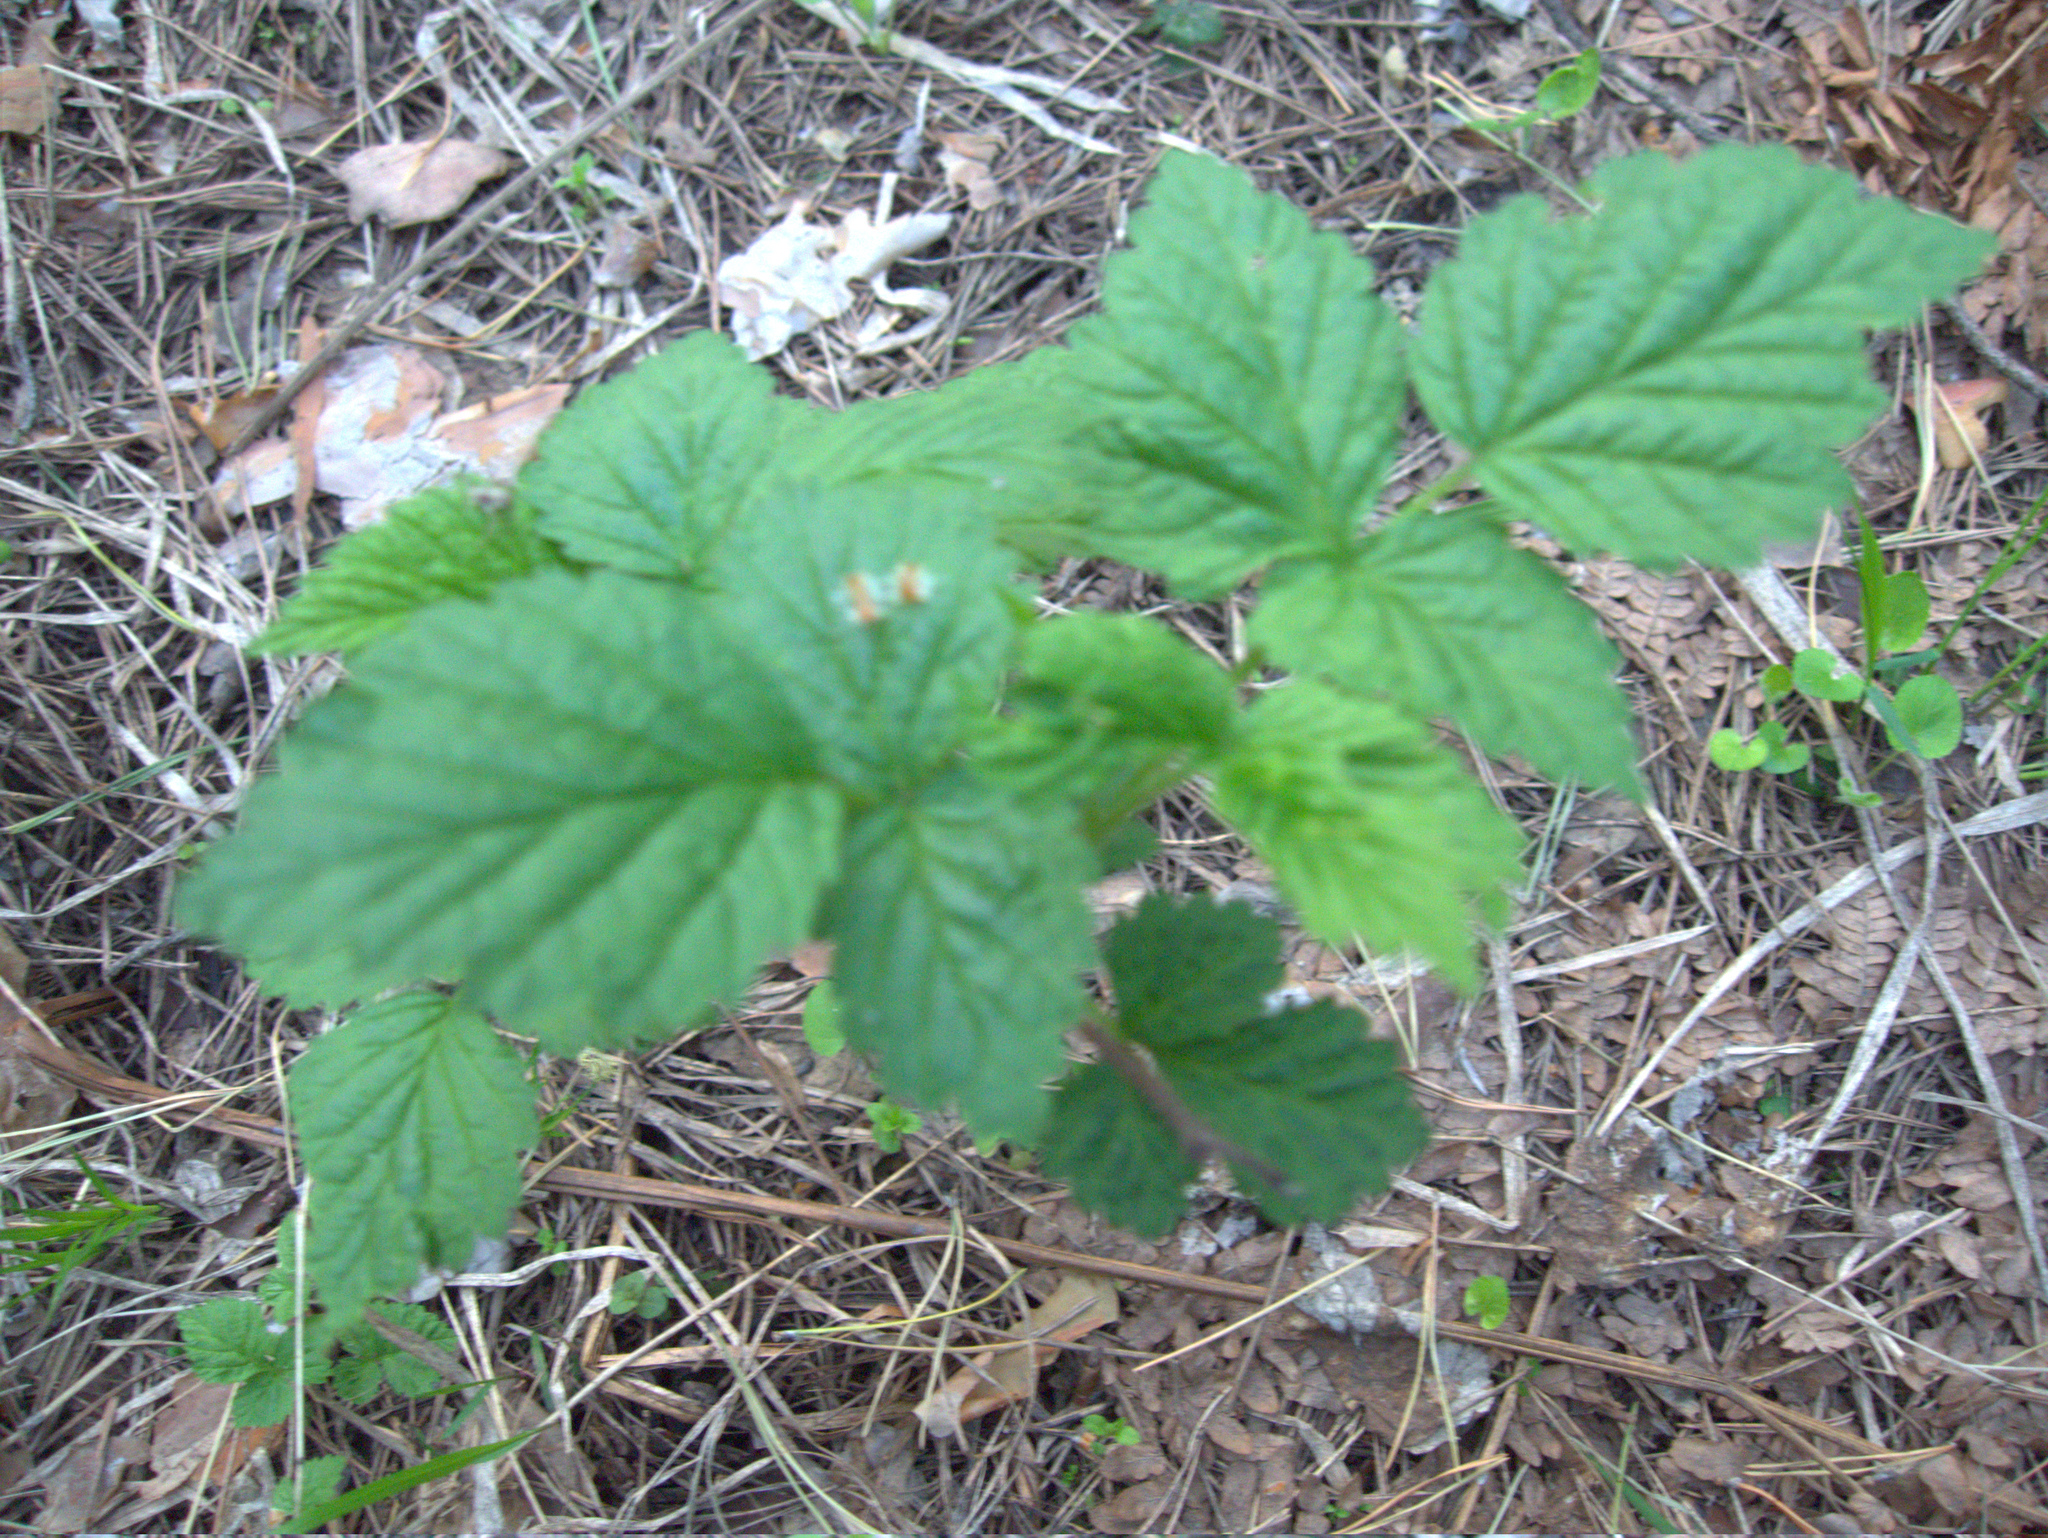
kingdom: Plantae
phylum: Tracheophyta
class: Magnoliopsida
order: Rosales
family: Rosaceae
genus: Rubus
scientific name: Rubus idaeus
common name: Raspberry
